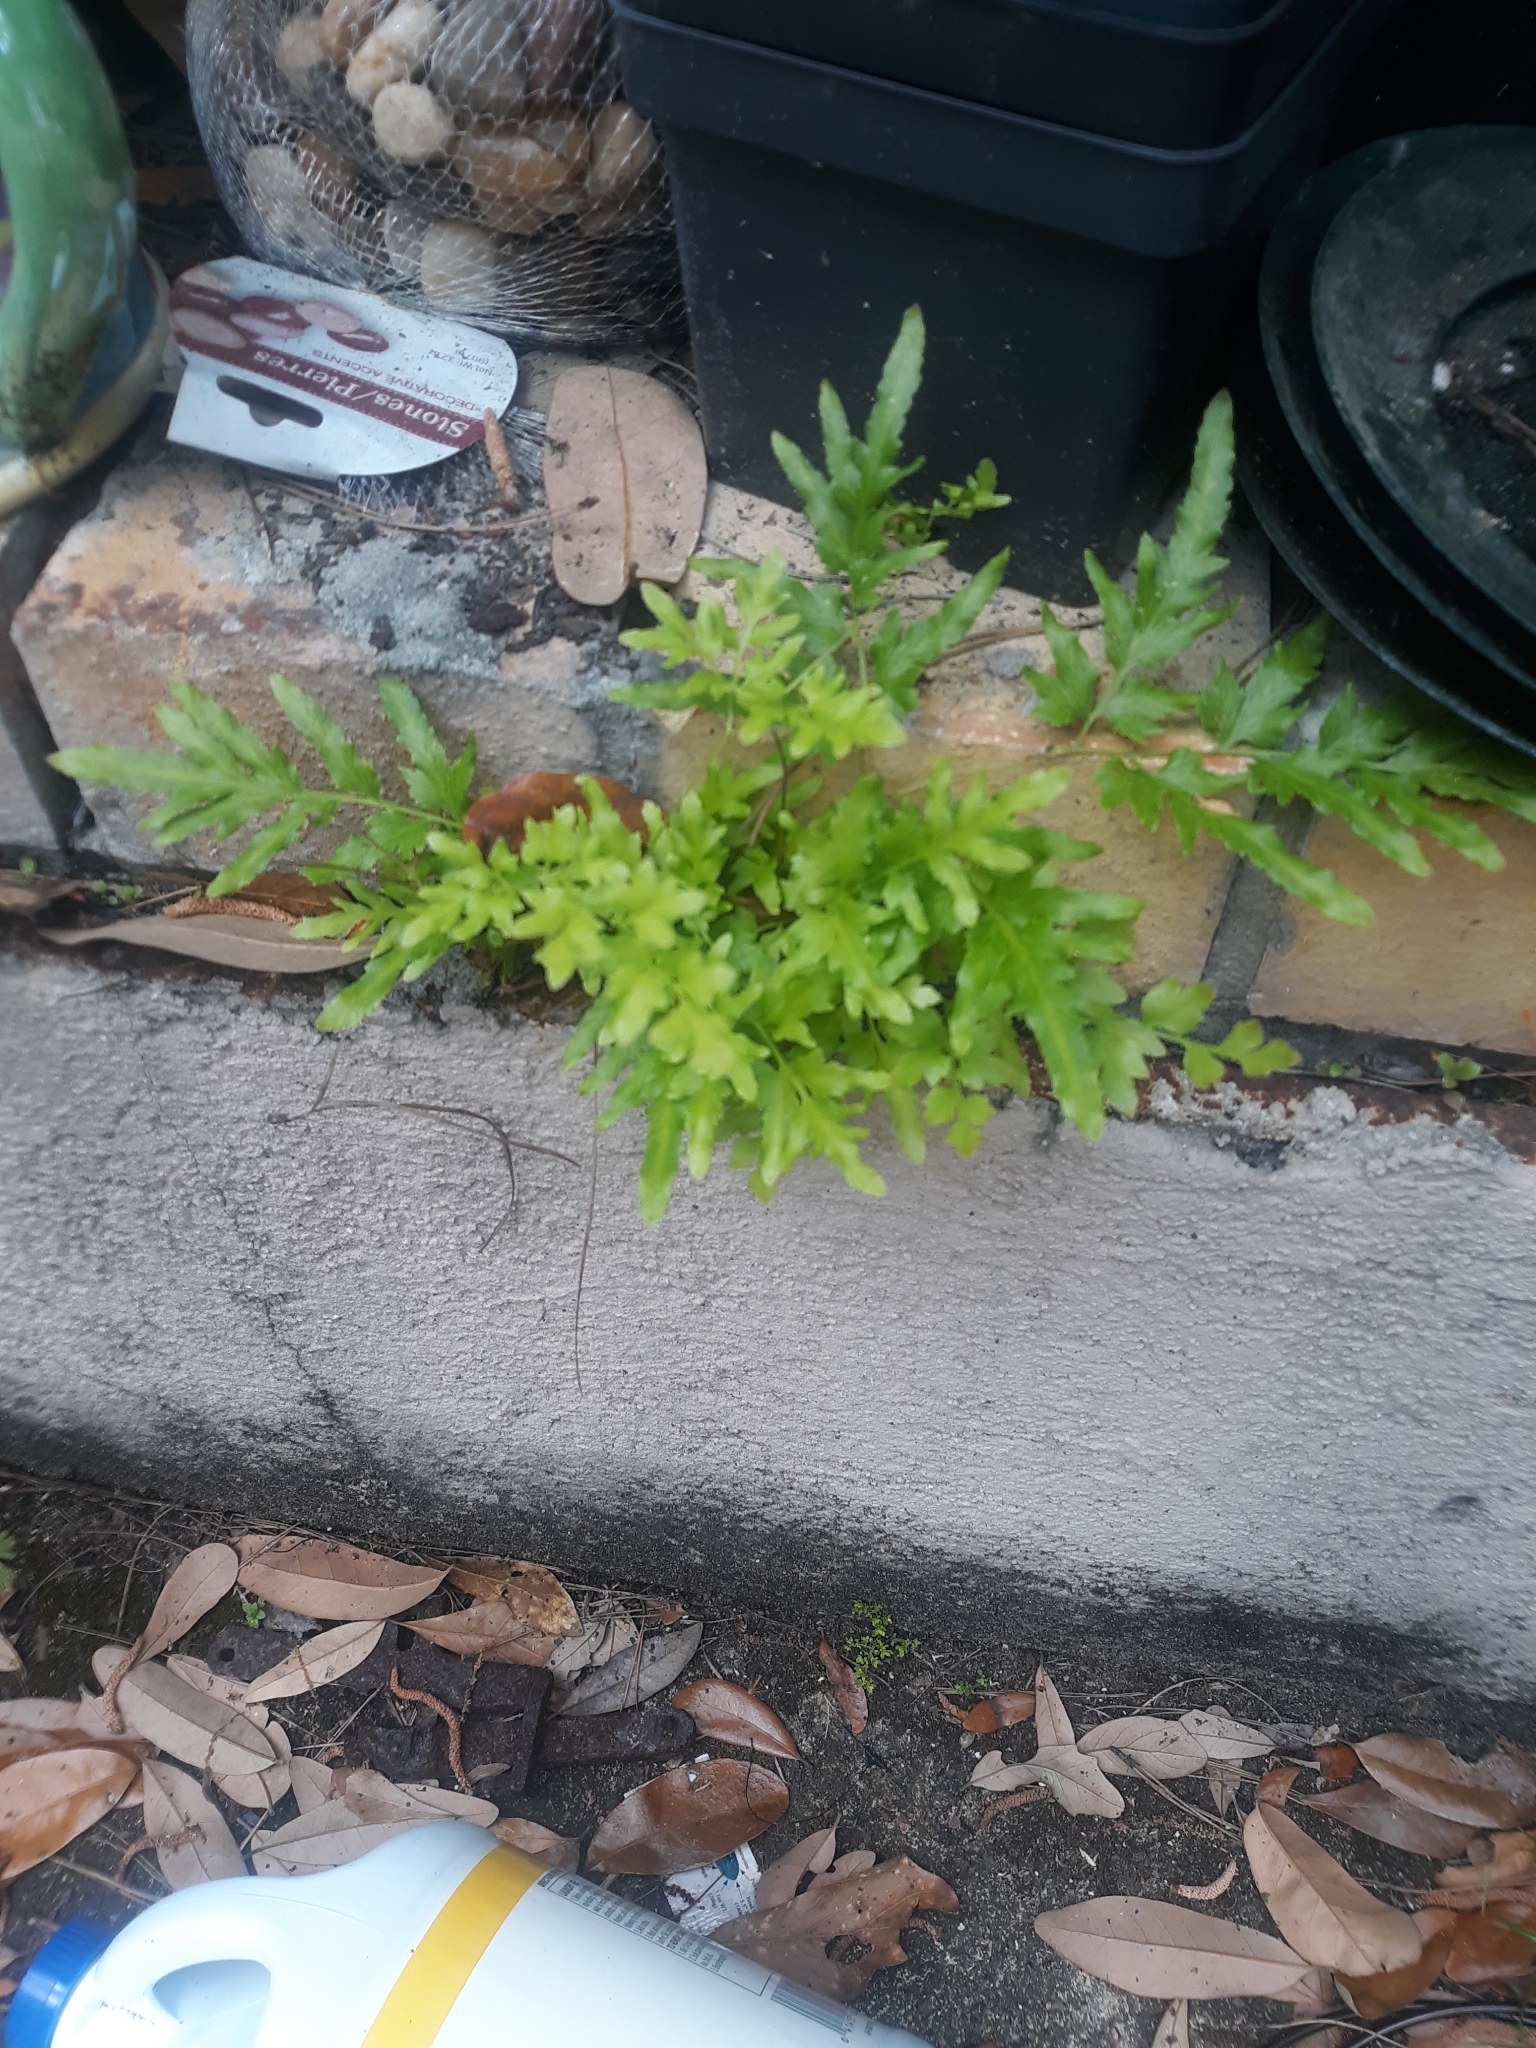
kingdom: Plantae
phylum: Tracheophyta
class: Polypodiopsida
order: Schizaeales
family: Lygodiaceae
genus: Lygodium
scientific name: Lygodium japonicum
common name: Japanese climbing fern
